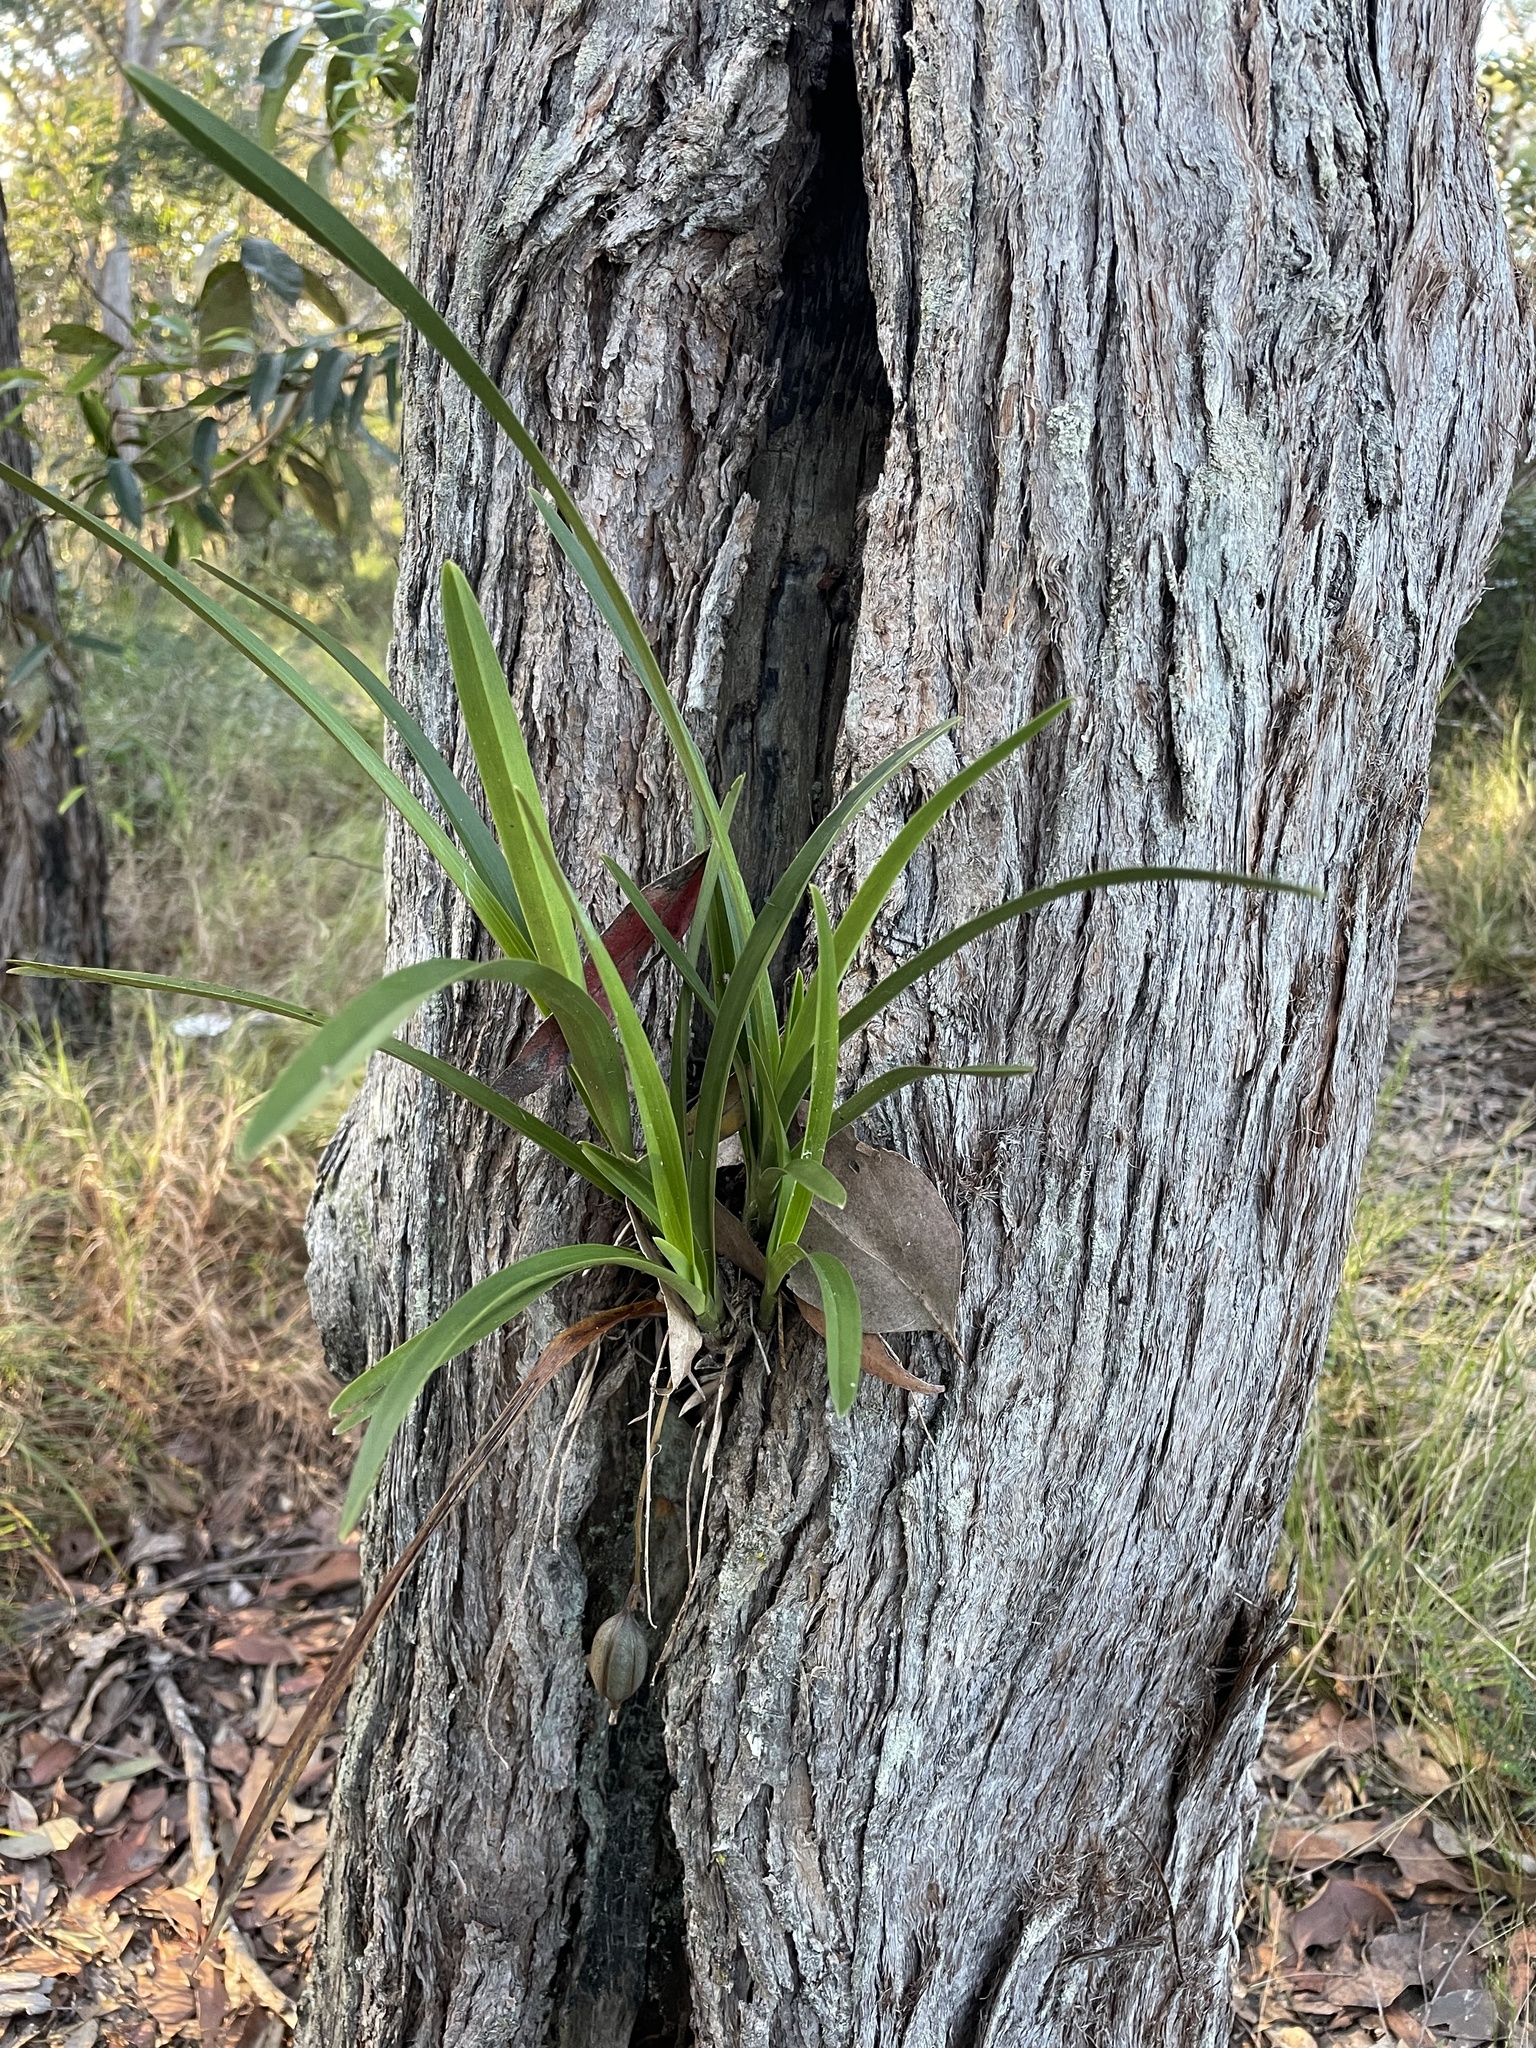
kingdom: Plantae
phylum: Tracheophyta
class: Liliopsida
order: Asparagales
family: Orchidaceae
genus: Cymbidium
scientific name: Cymbidium suave
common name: Snake orchid
